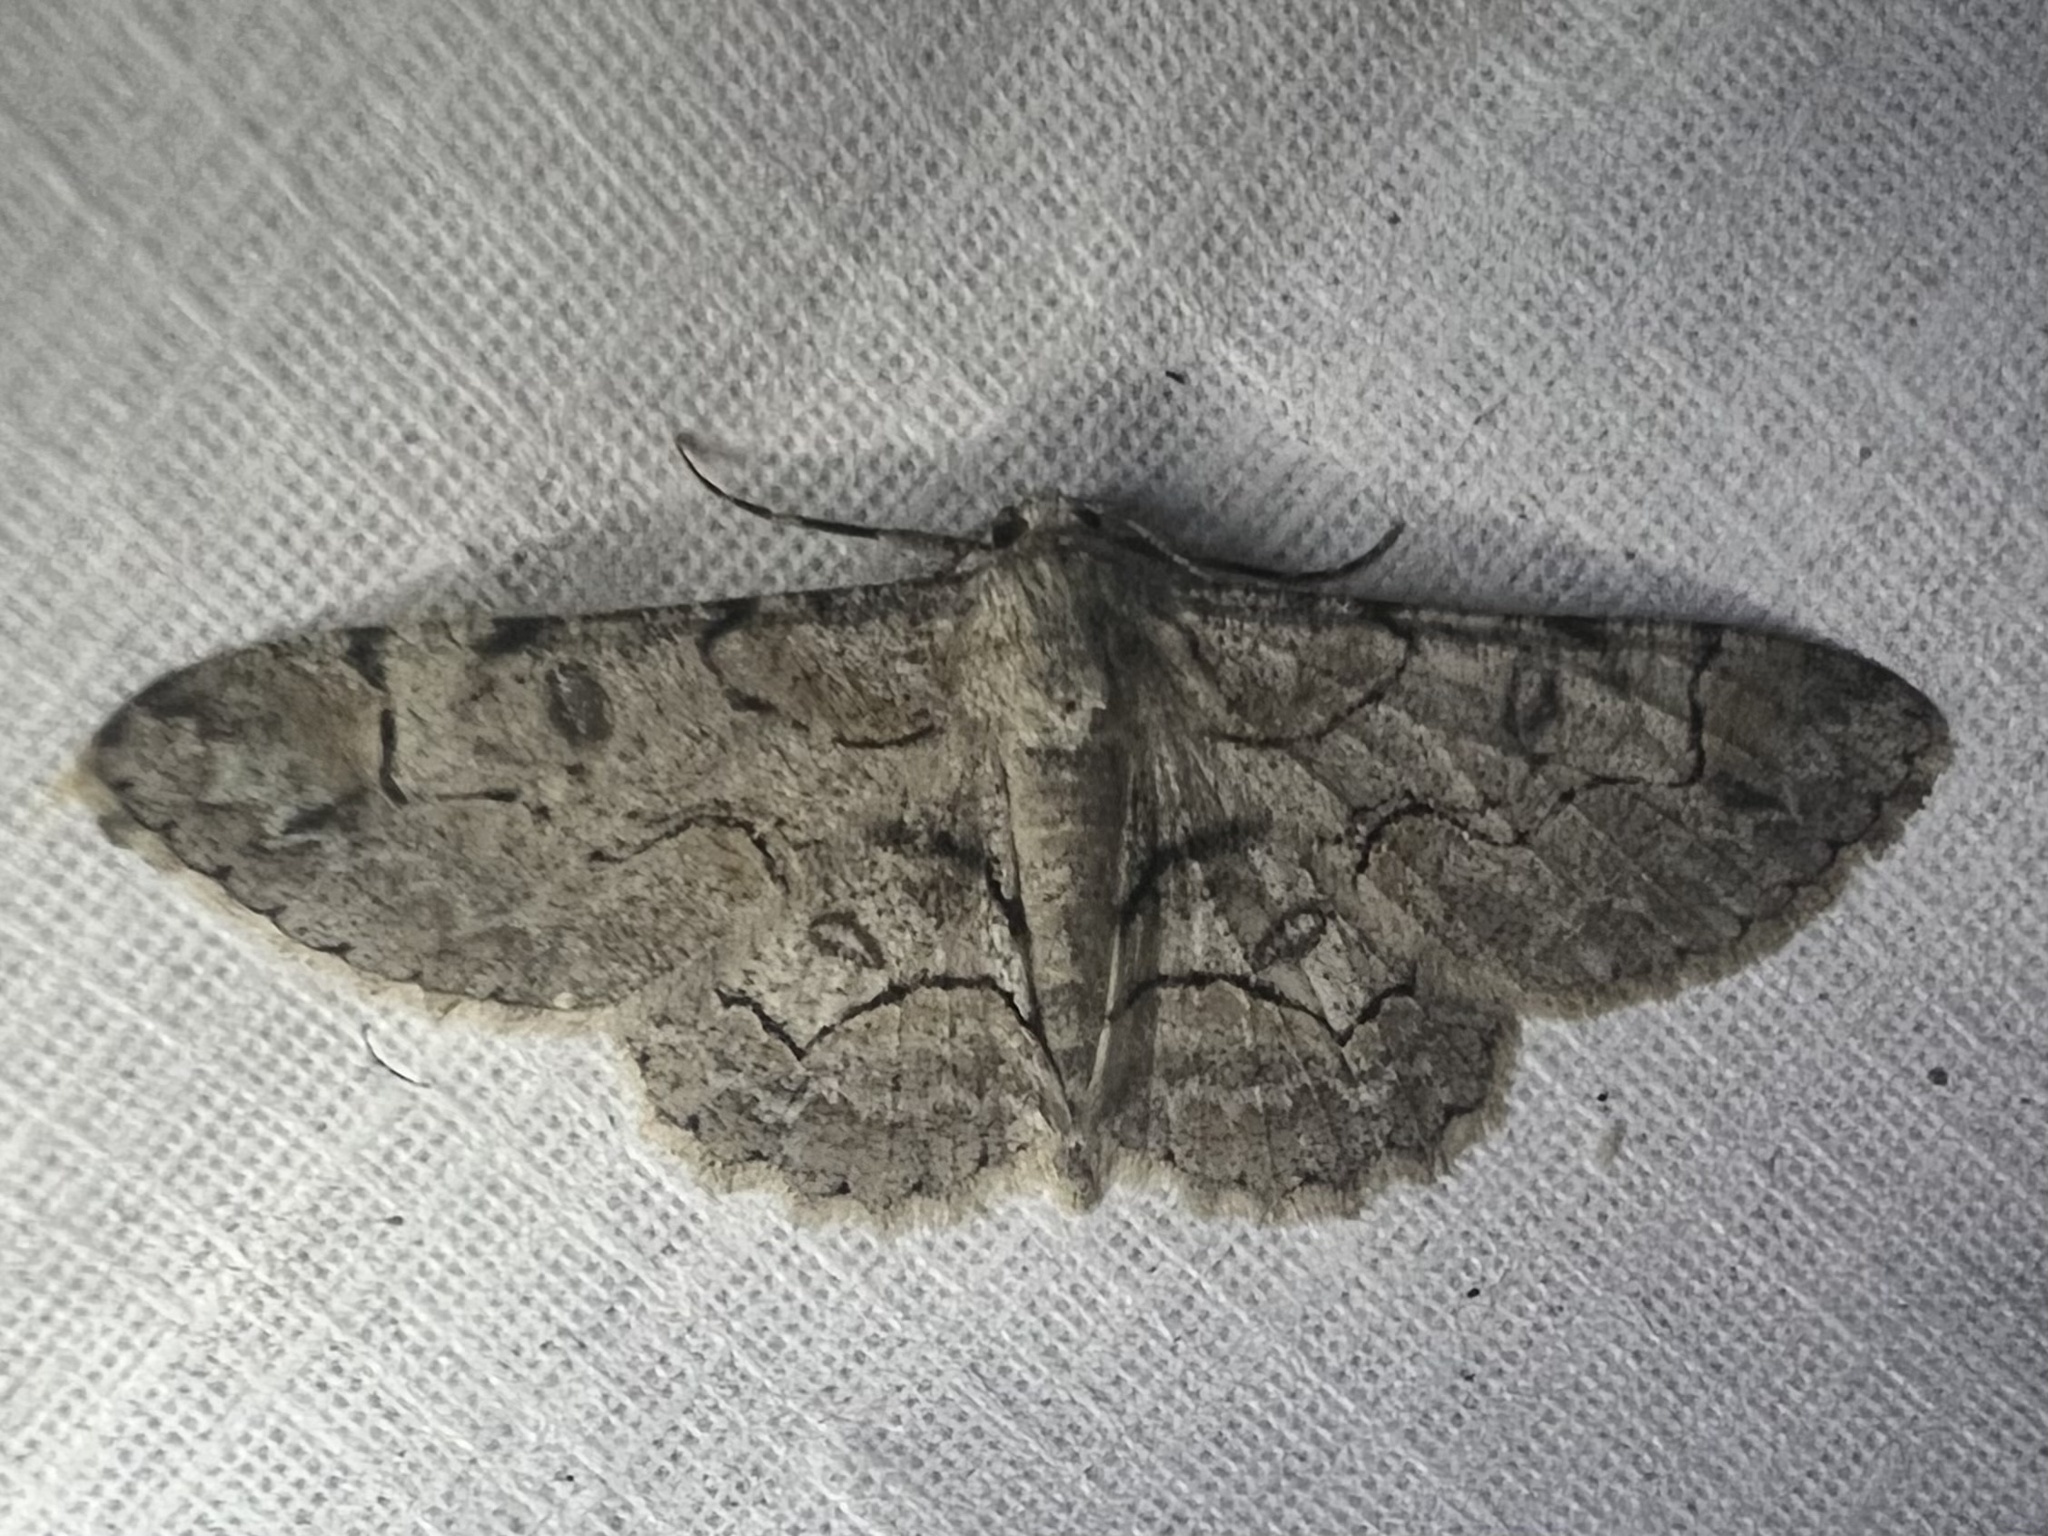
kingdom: Animalia
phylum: Arthropoda
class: Insecta
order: Lepidoptera
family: Geometridae
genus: Iridopsis
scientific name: Iridopsis larvaria
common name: Bent-line gray
